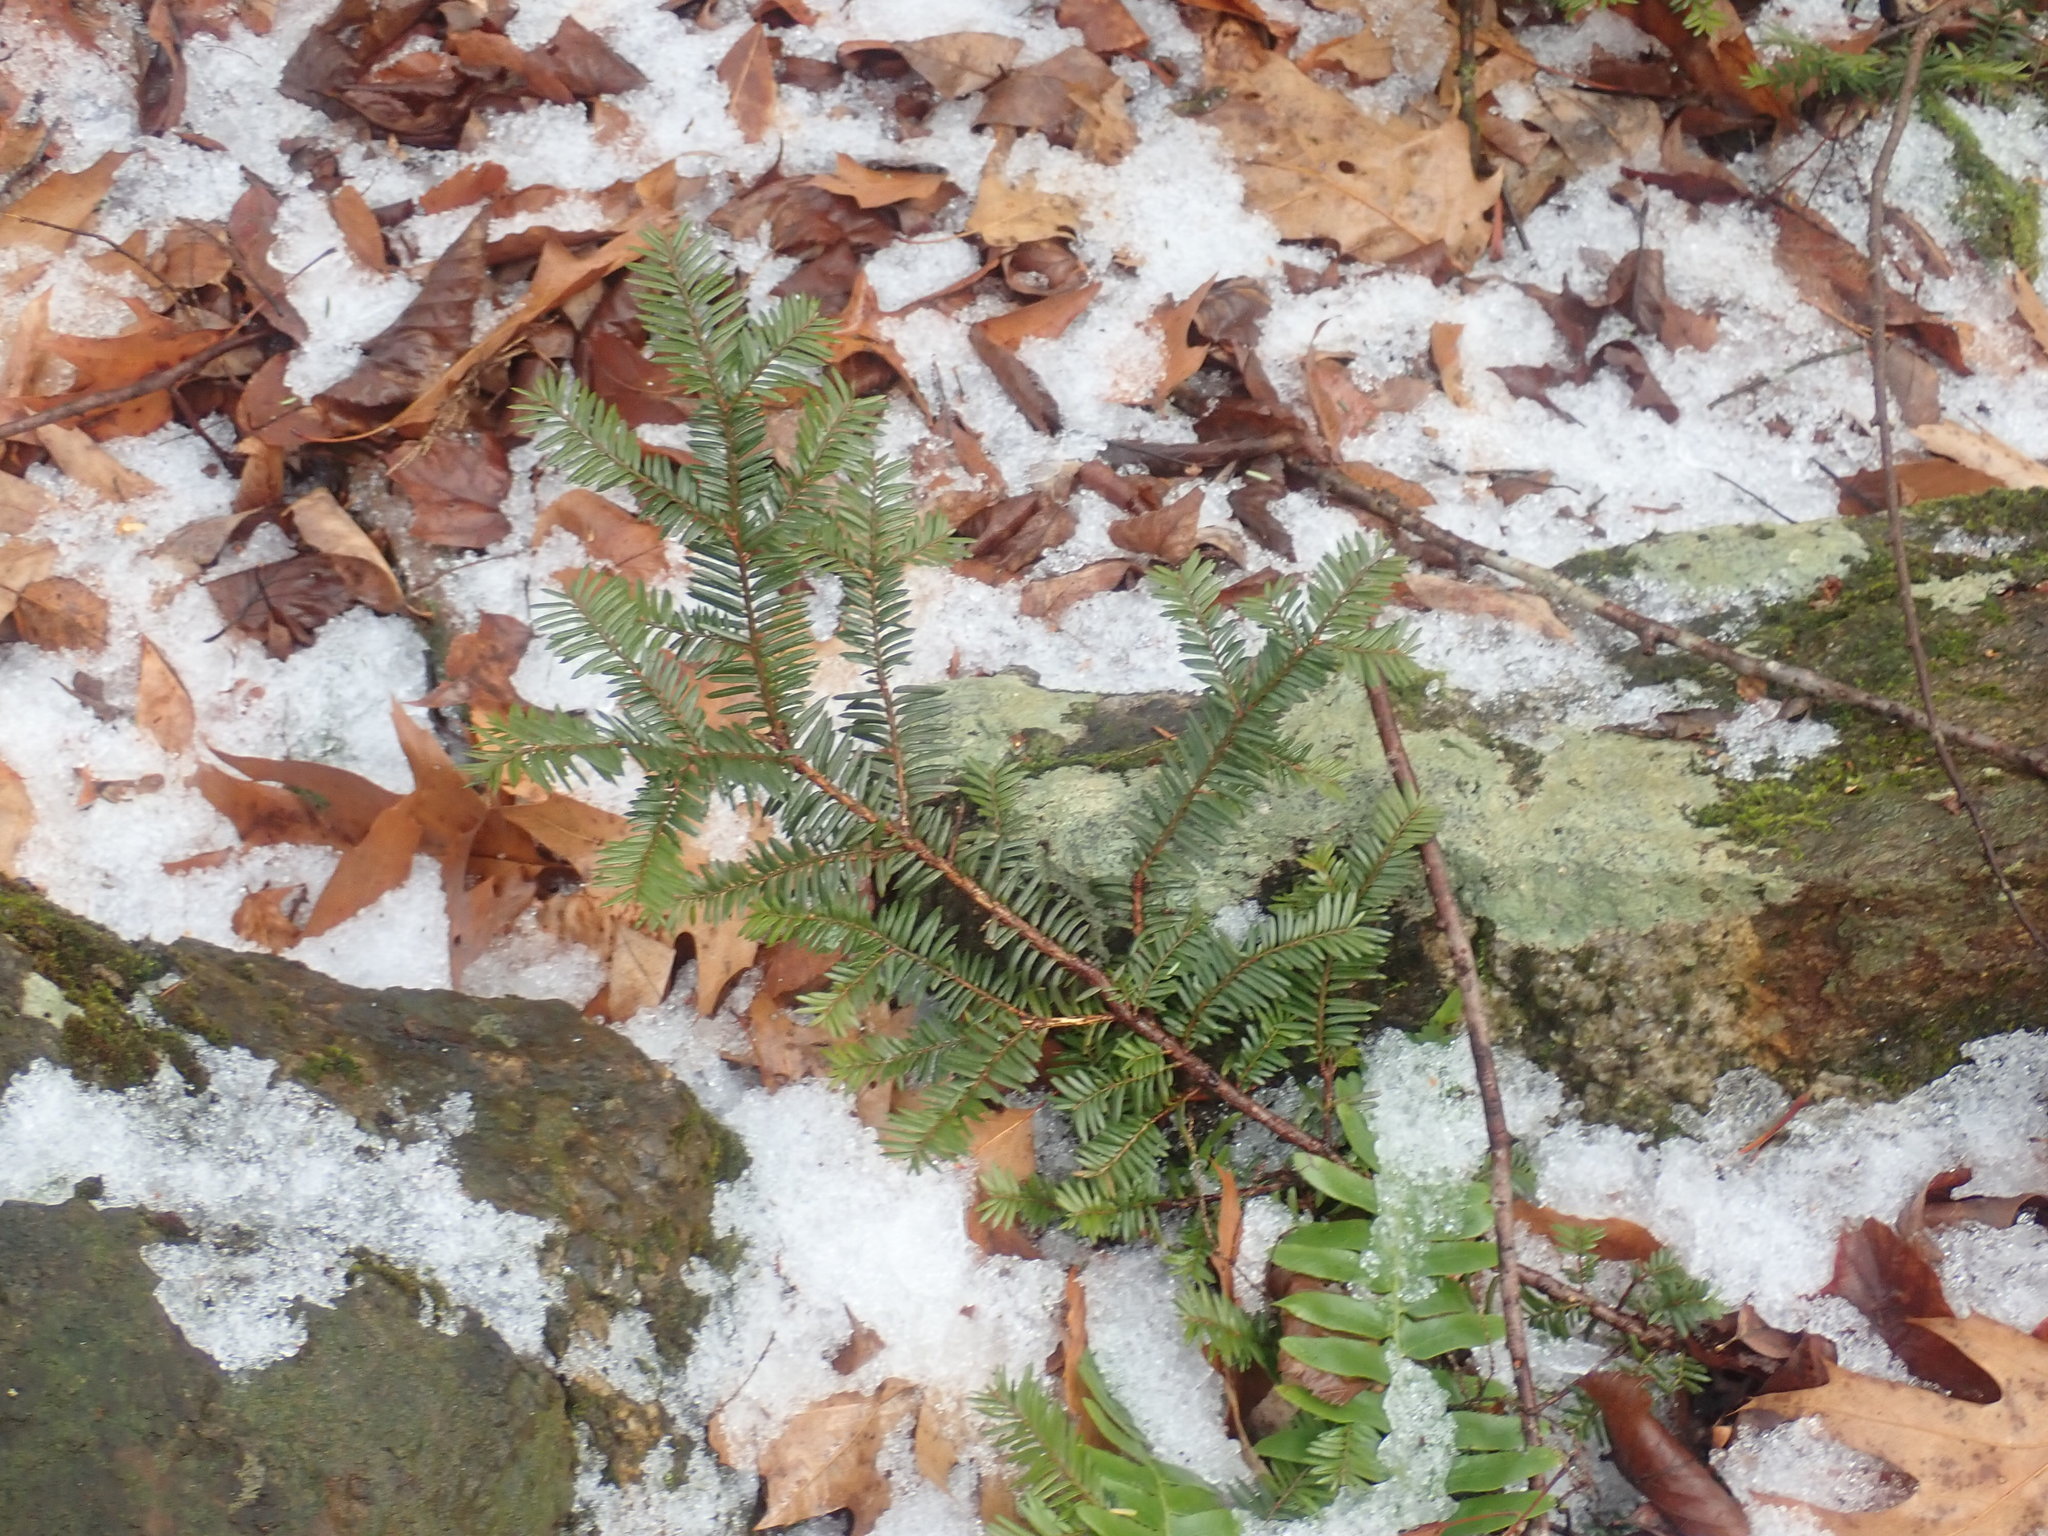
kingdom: Plantae
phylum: Tracheophyta
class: Pinopsida
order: Pinales
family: Taxaceae
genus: Taxus
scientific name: Taxus canadensis
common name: American yew
